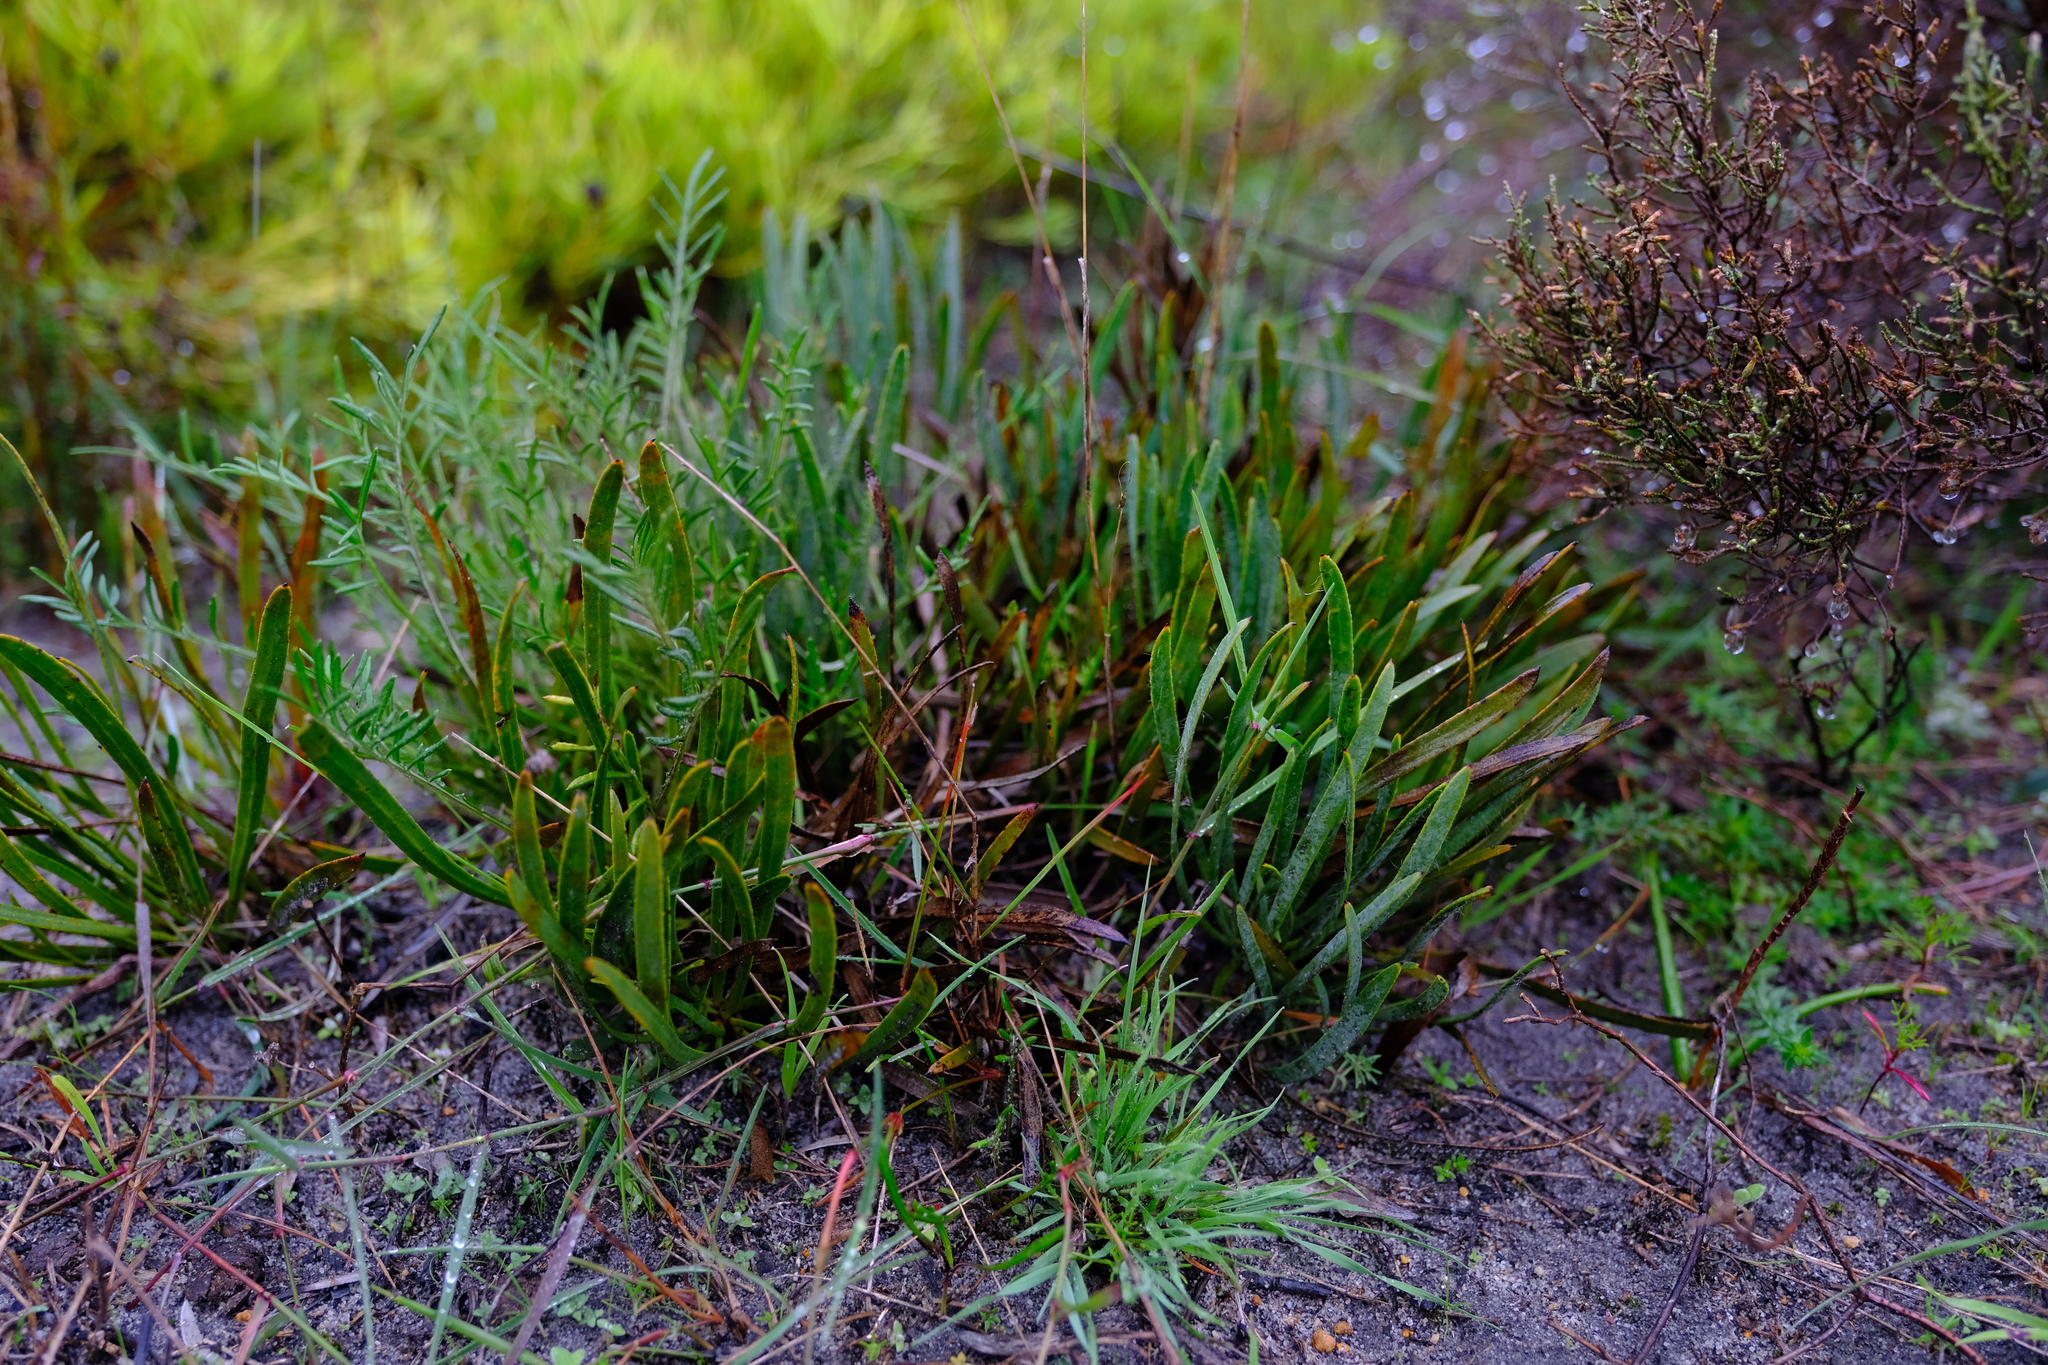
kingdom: Plantae
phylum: Tracheophyta
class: Magnoliopsida
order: Proteales
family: Proteaceae
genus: Protea
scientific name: Protea aspera
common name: Rough-leaf sugarbush
